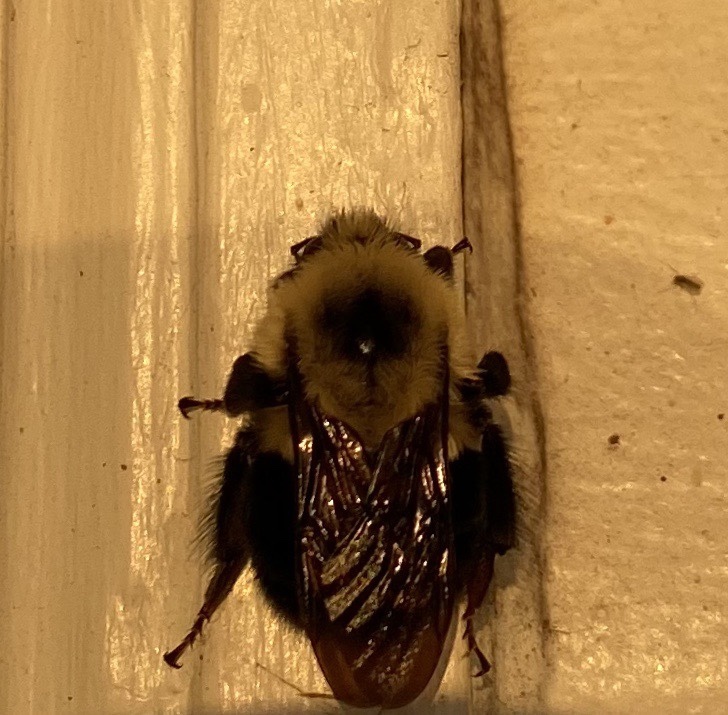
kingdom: Animalia
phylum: Arthropoda
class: Insecta
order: Hymenoptera
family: Apidae
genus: Bombus
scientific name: Bombus bimaculatus
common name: Two-spotted bumble bee
